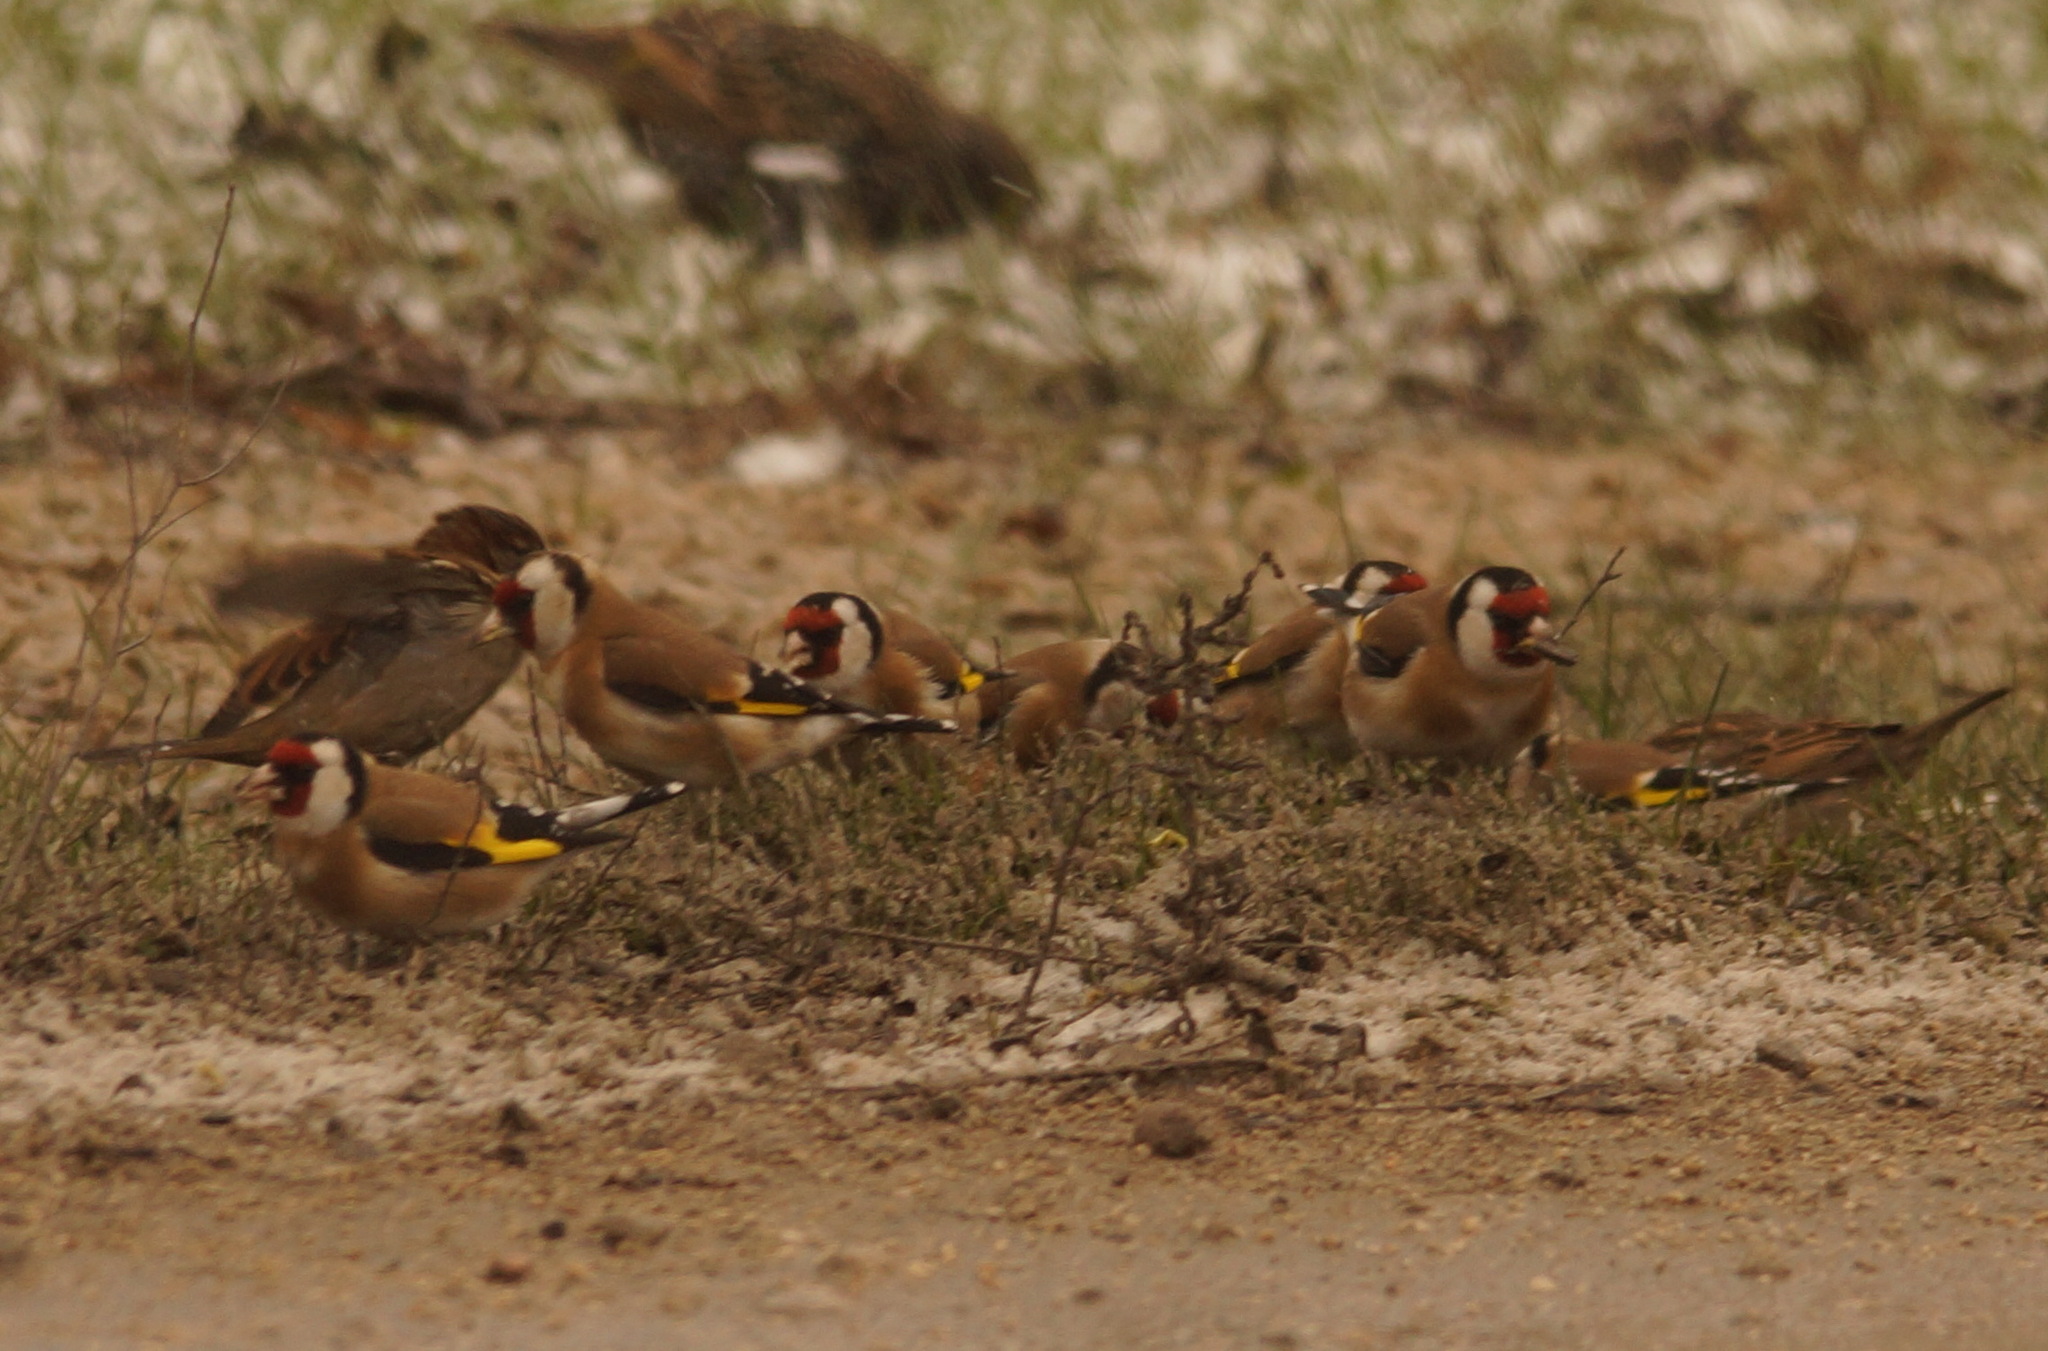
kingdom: Animalia
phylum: Chordata
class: Aves
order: Passeriformes
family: Fringillidae
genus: Carduelis
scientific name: Carduelis carduelis
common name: European goldfinch
